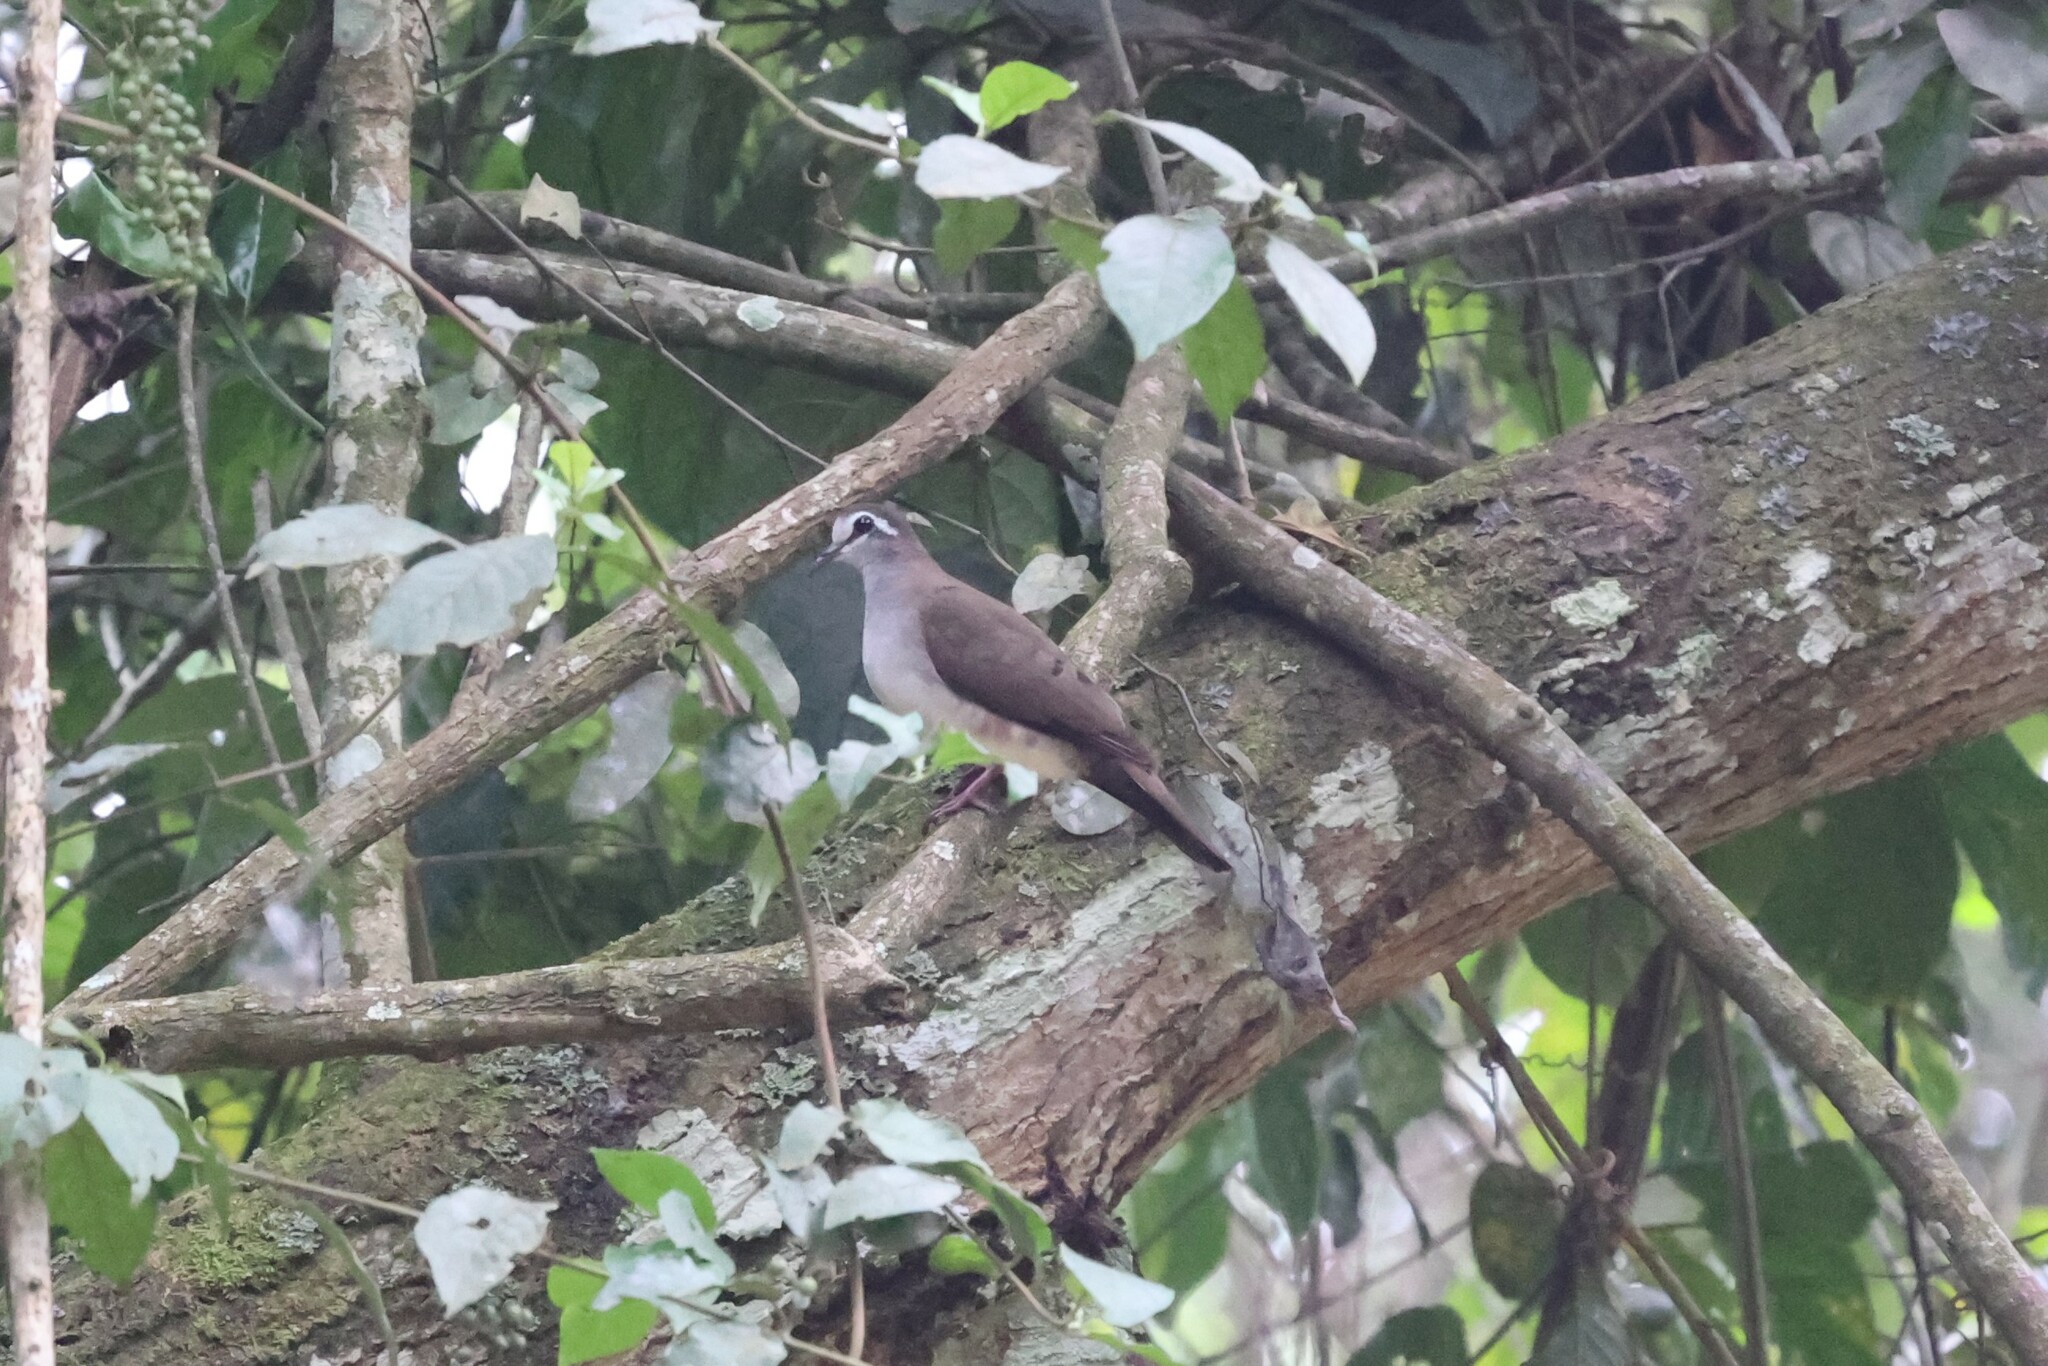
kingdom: Animalia
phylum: Chordata
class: Aves
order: Columbiformes
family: Columbidae
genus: Turtur
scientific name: Turtur tympanistria
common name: Tambourine dove
